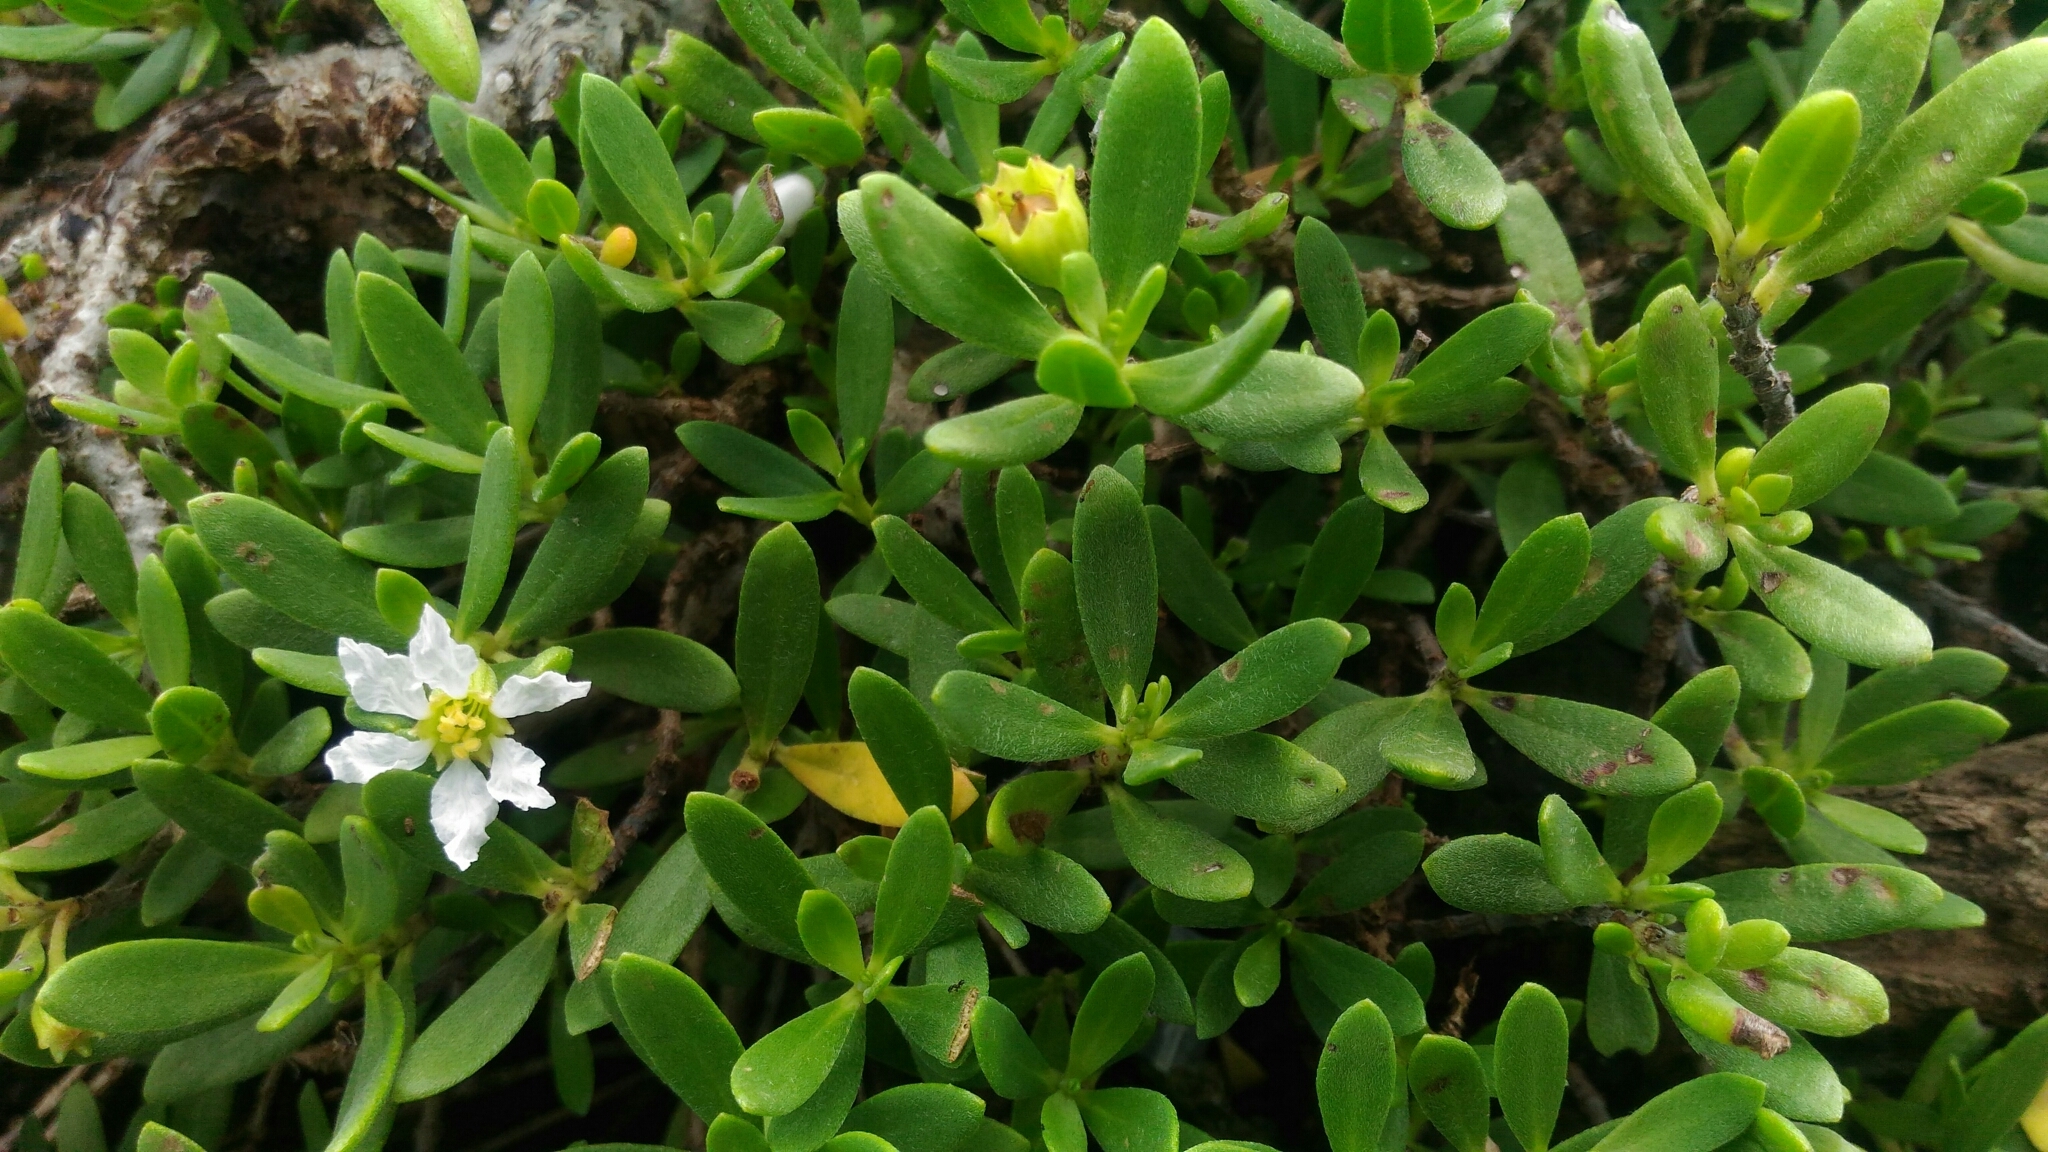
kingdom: Plantae
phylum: Tracheophyta
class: Magnoliopsida
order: Myrtales
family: Lythraceae
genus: Pemphis
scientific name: Pemphis acidula
